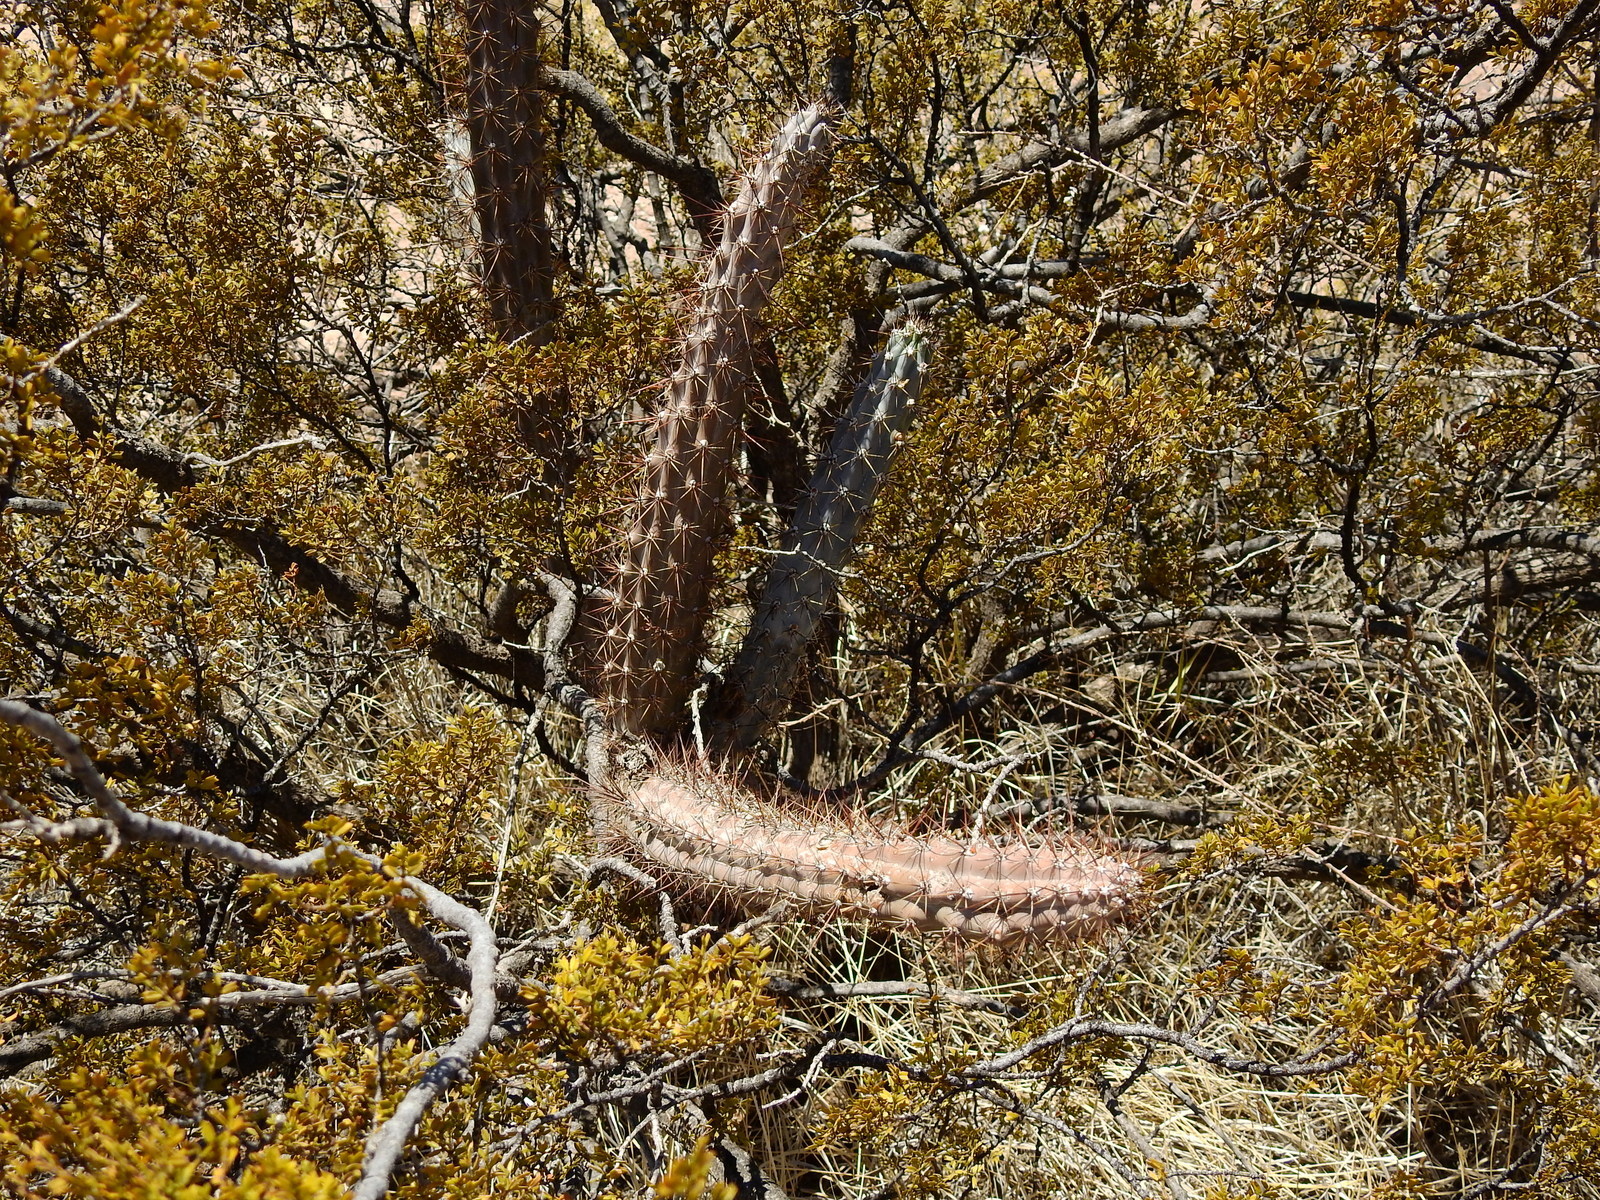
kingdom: Plantae
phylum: Tracheophyta
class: Magnoliopsida
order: Caryophyllales
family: Cactaceae
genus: Cereus
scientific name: Cereus aethiops
